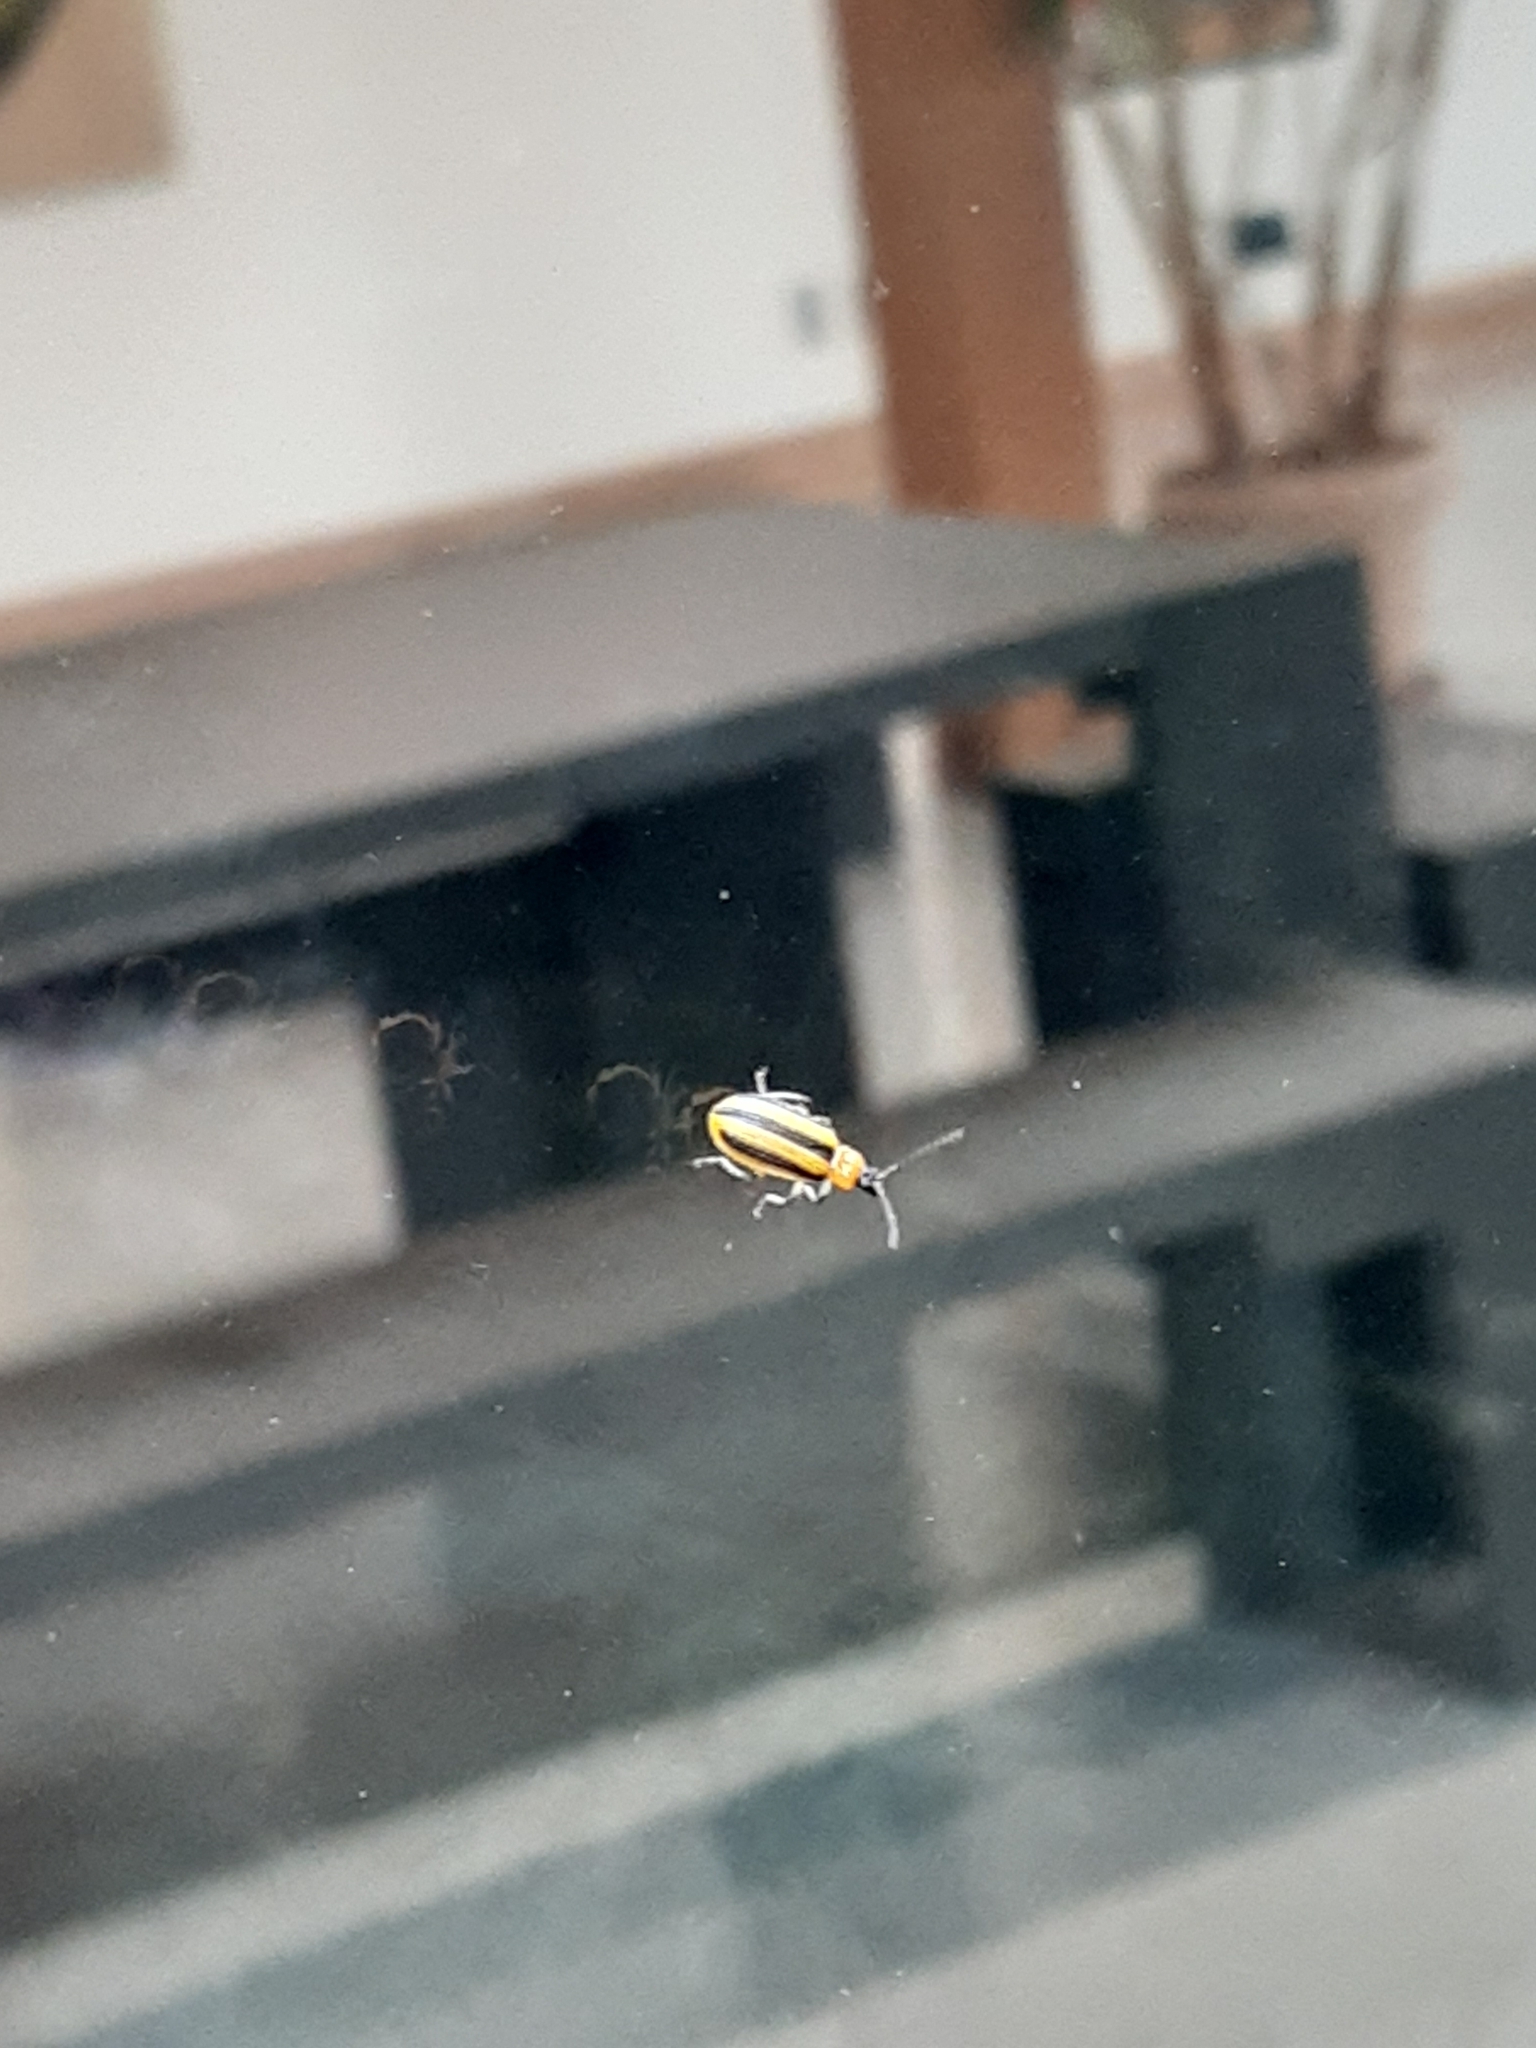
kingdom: Animalia
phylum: Arthropoda
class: Insecta
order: Coleoptera
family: Chrysomelidae
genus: Acalymma
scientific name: Acalymma vittatum
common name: Striped cucumber beetle
